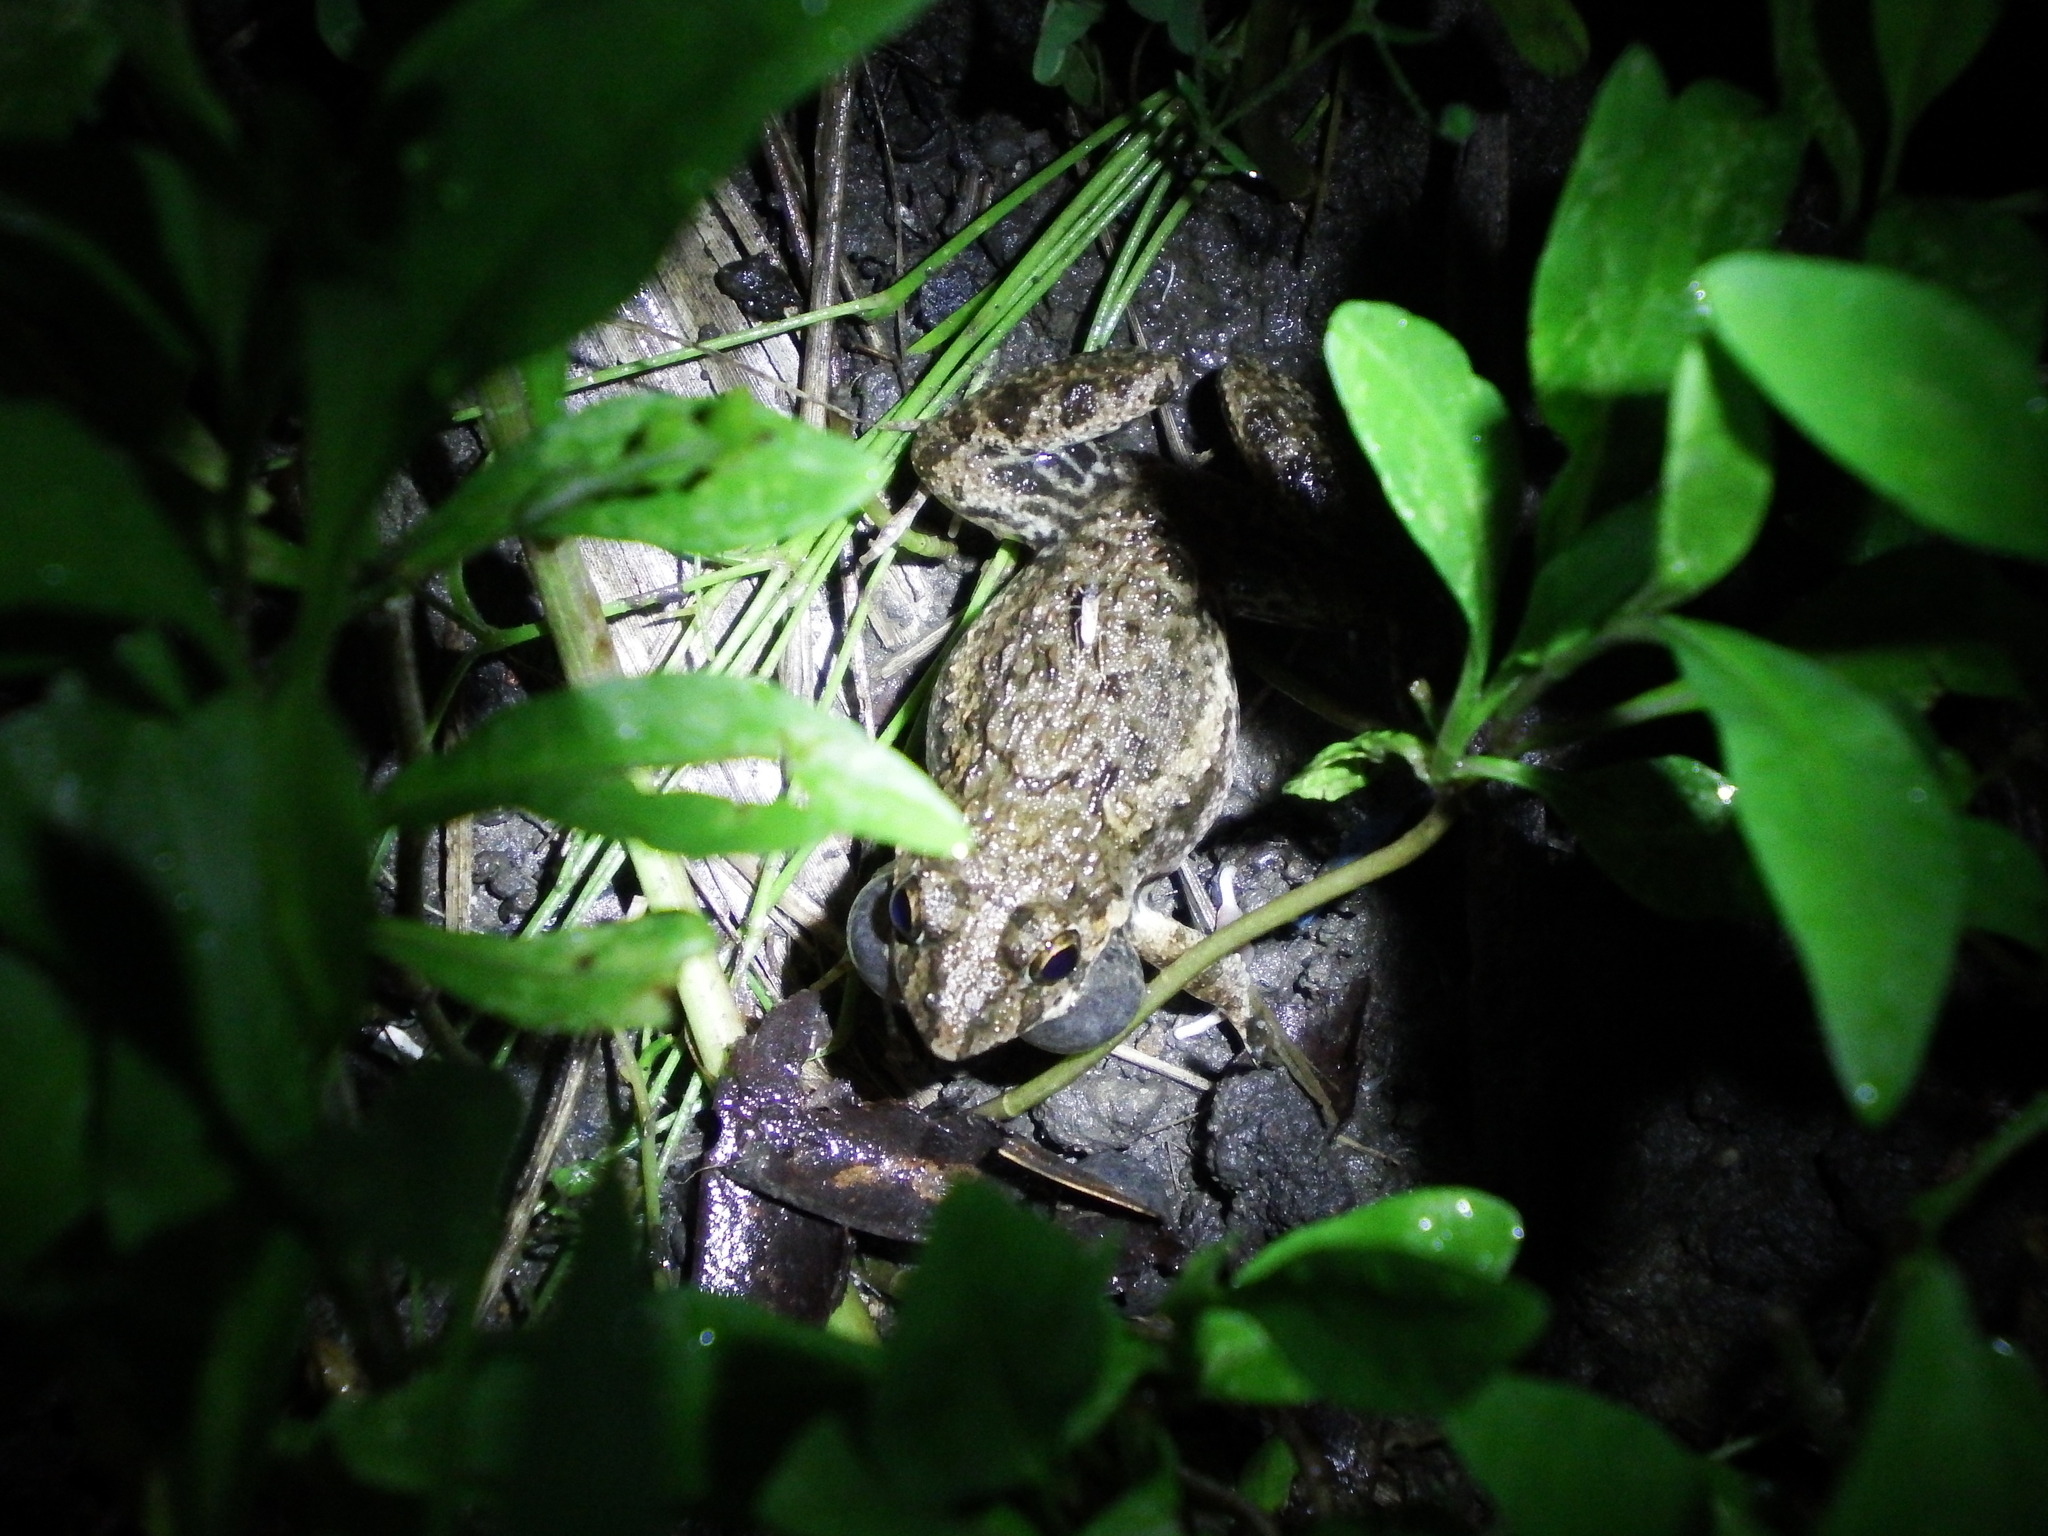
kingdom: Animalia
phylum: Chordata
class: Amphibia
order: Anura
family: Dicroglossidae
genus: Fejervarya
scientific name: Fejervarya limnocharis
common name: Asian grass frog/common pond frog/field frog/grass frog/indian rice frog
